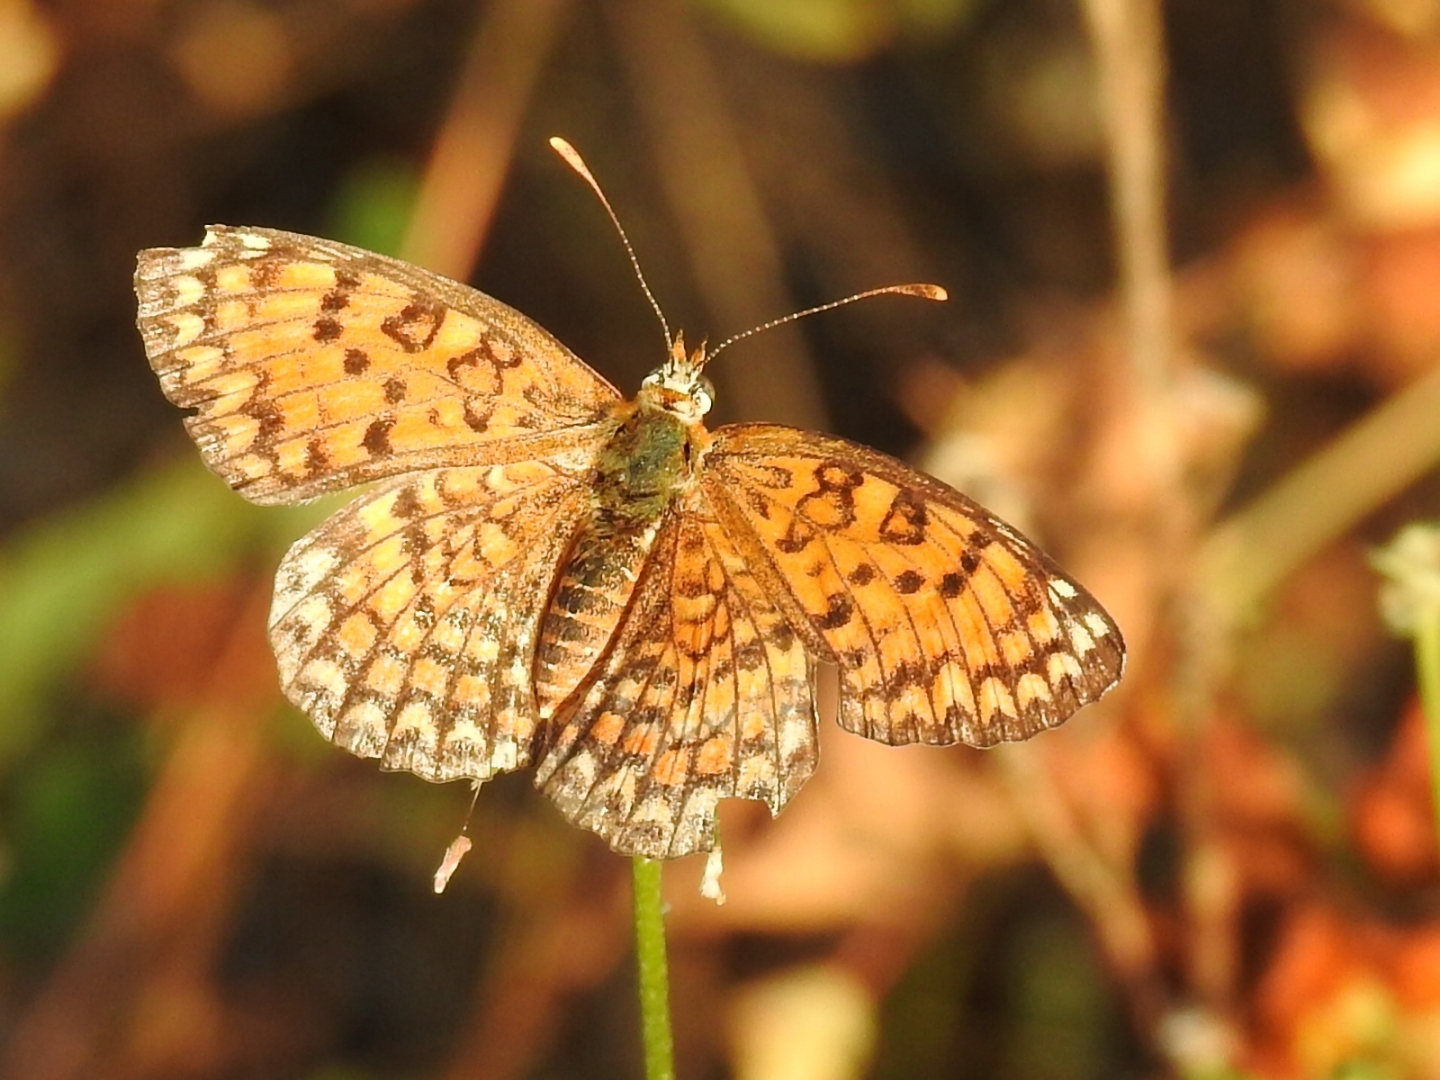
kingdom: Animalia
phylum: Arthropoda
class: Insecta
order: Lepidoptera
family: Nymphalidae
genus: Melitaea
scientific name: Melitaea phoebe
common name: Knapweed fritillary
